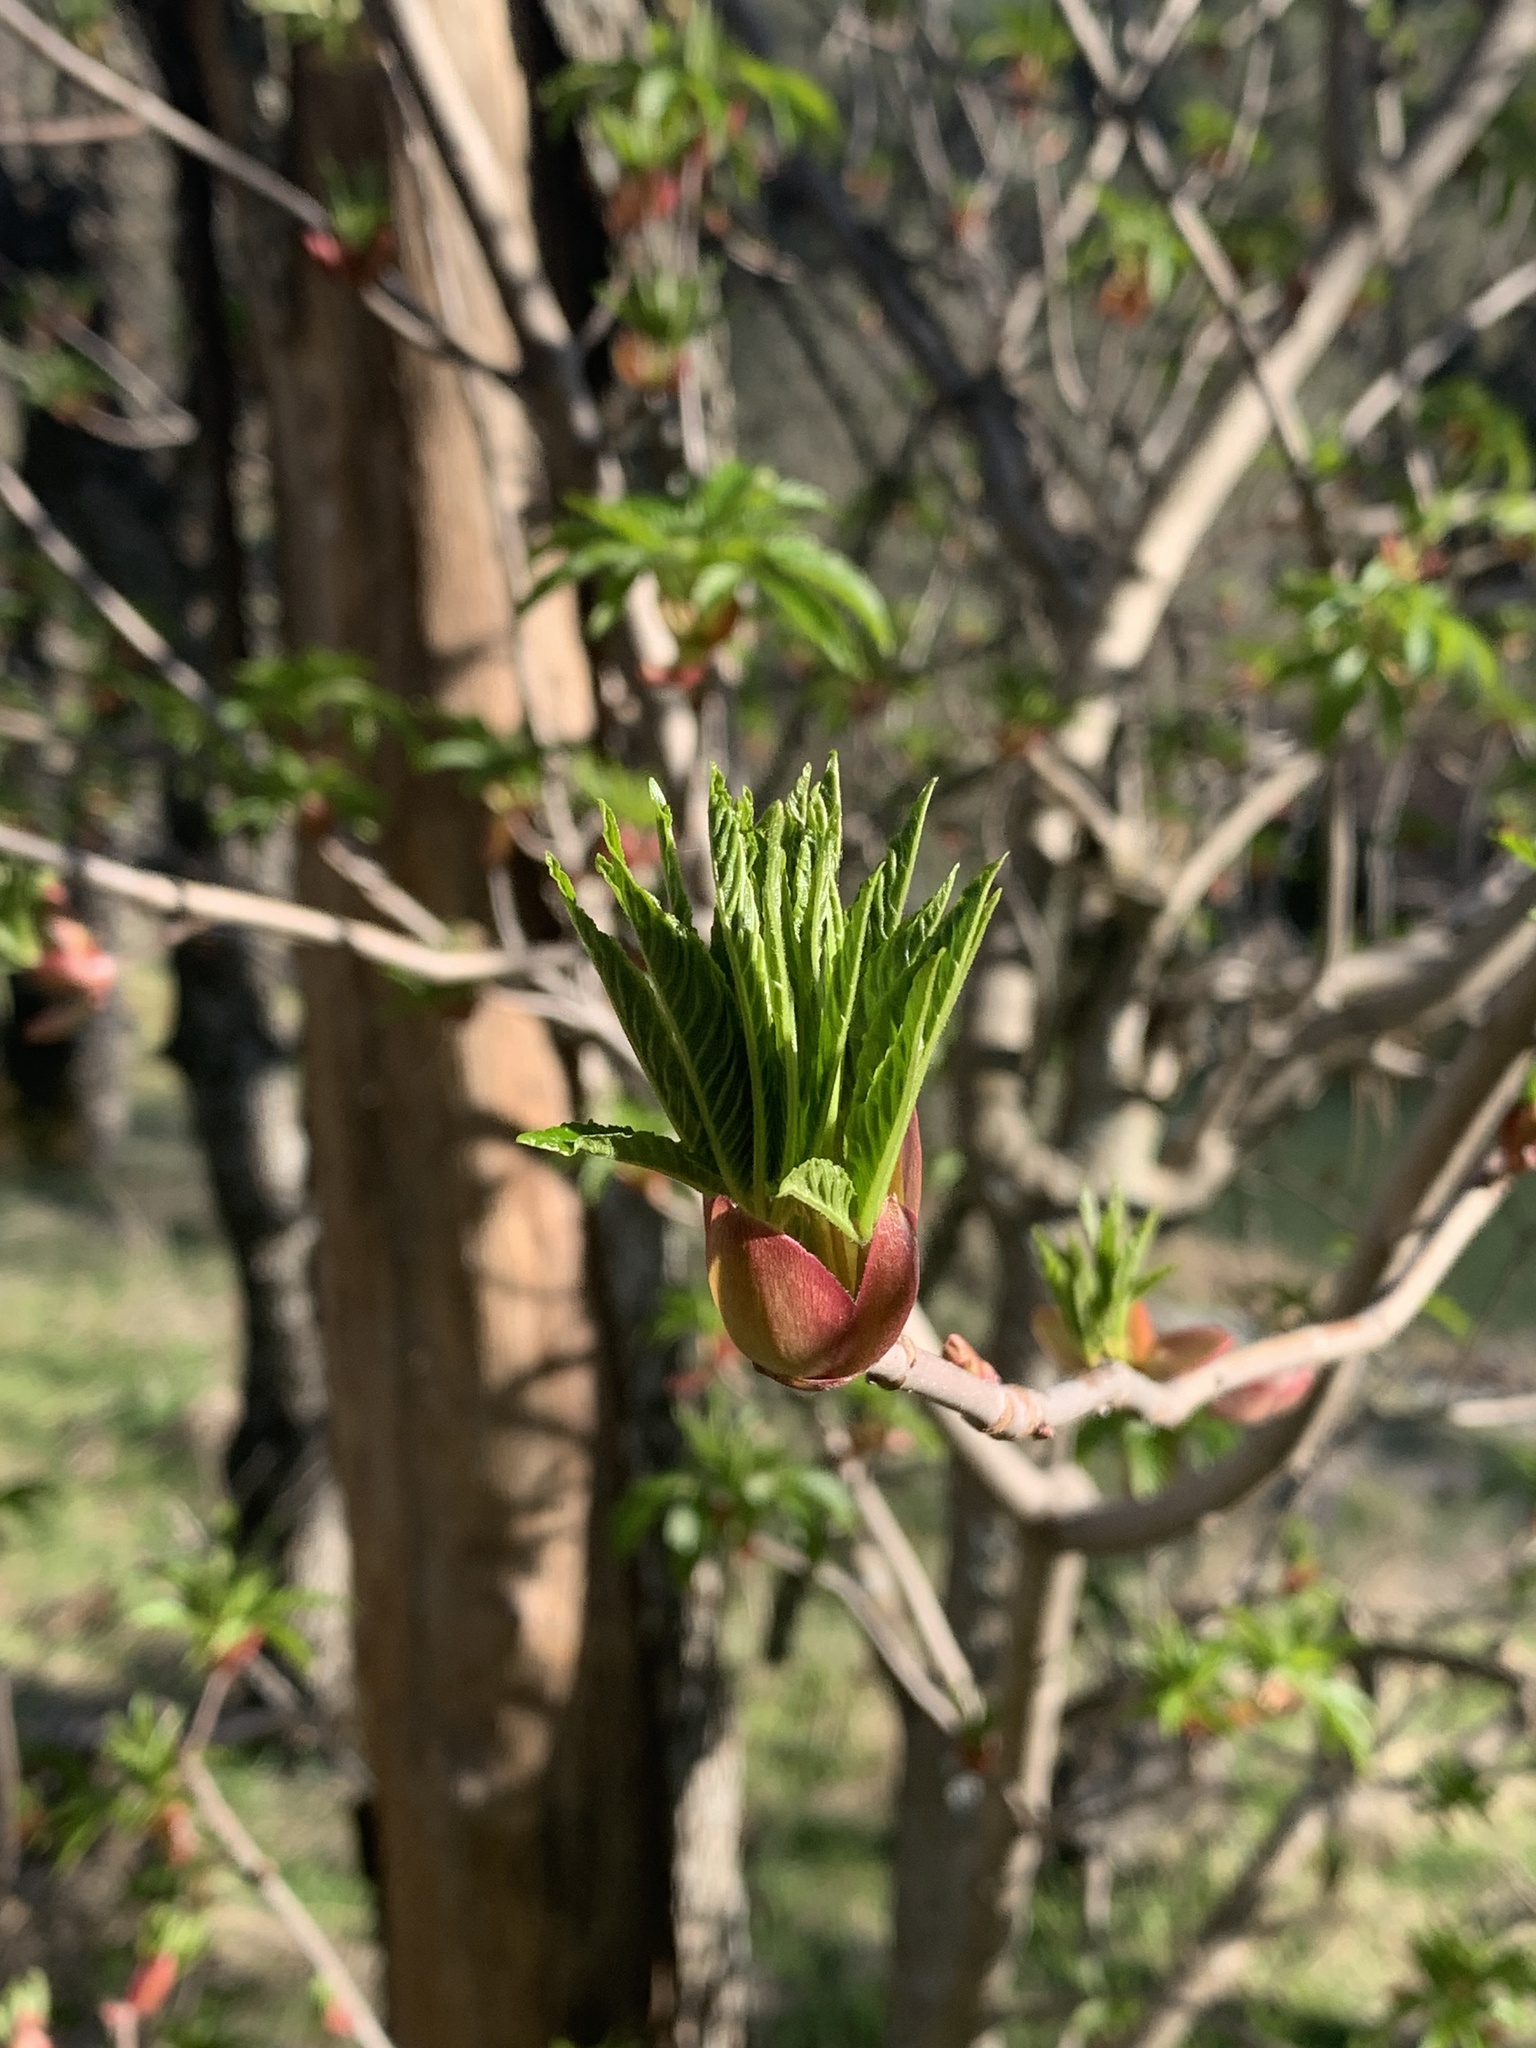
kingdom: Plantae
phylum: Tracheophyta
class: Magnoliopsida
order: Sapindales
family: Sapindaceae
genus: Aesculus
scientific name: Aesculus californica
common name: California buckeye
